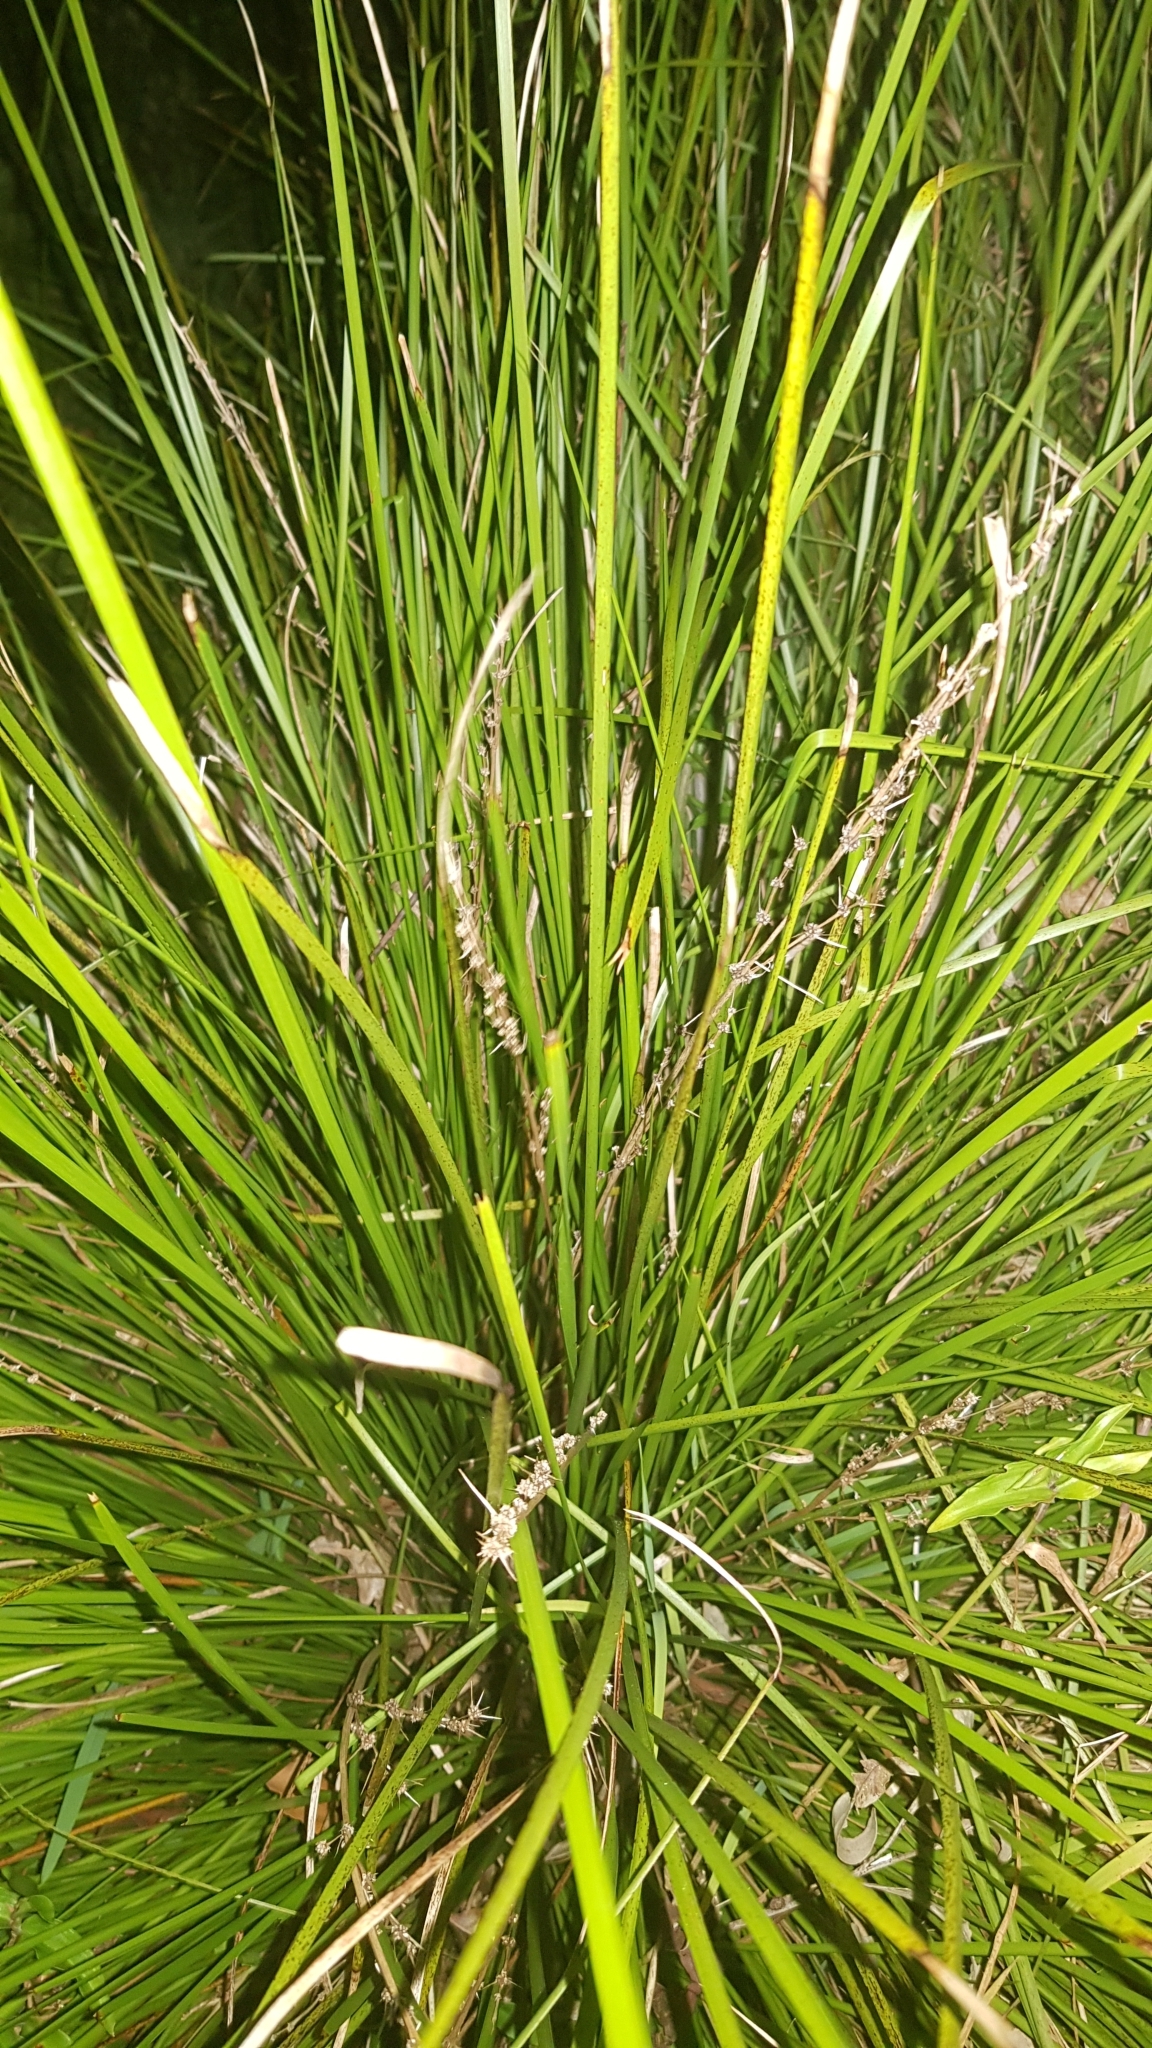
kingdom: Animalia
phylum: Arthropoda
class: Insecta
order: Orthoptera
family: Tettigoniidae
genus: Pseudorhynchus
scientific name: Pseudorhynchus lessonii
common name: Lesson's mimicking snout nose
